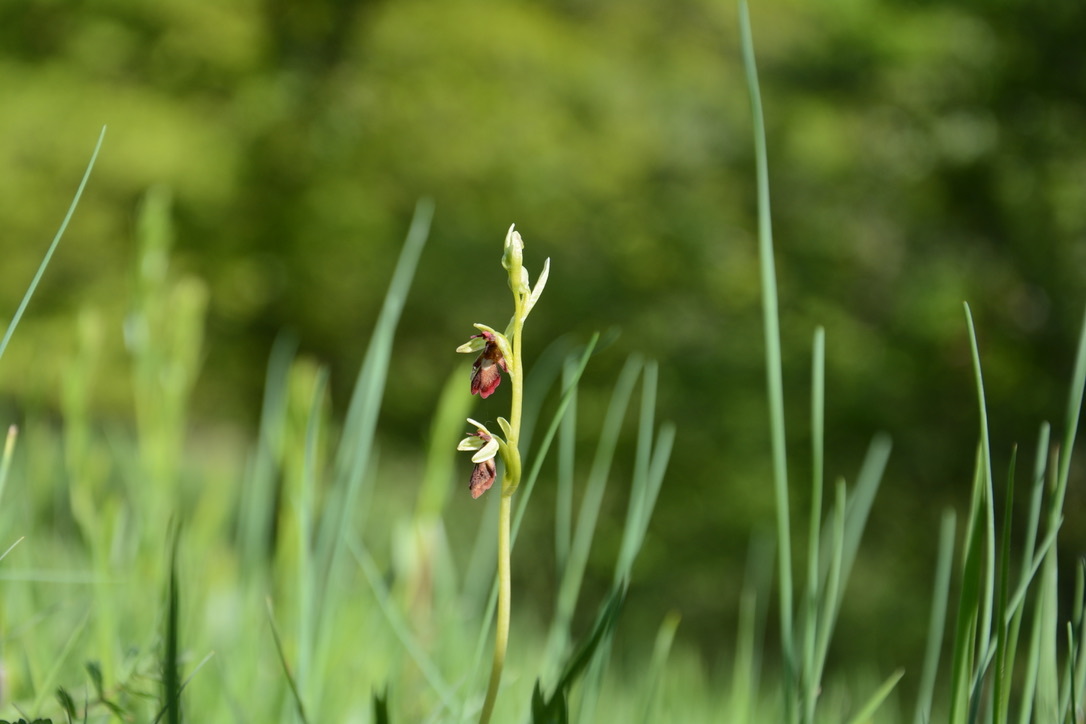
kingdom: Plantae
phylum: Tracheophyta
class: Liliopsida
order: Asparagales
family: Orchidaceae
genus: Ophrys
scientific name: Ophrys insectifera
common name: Fly orchid
